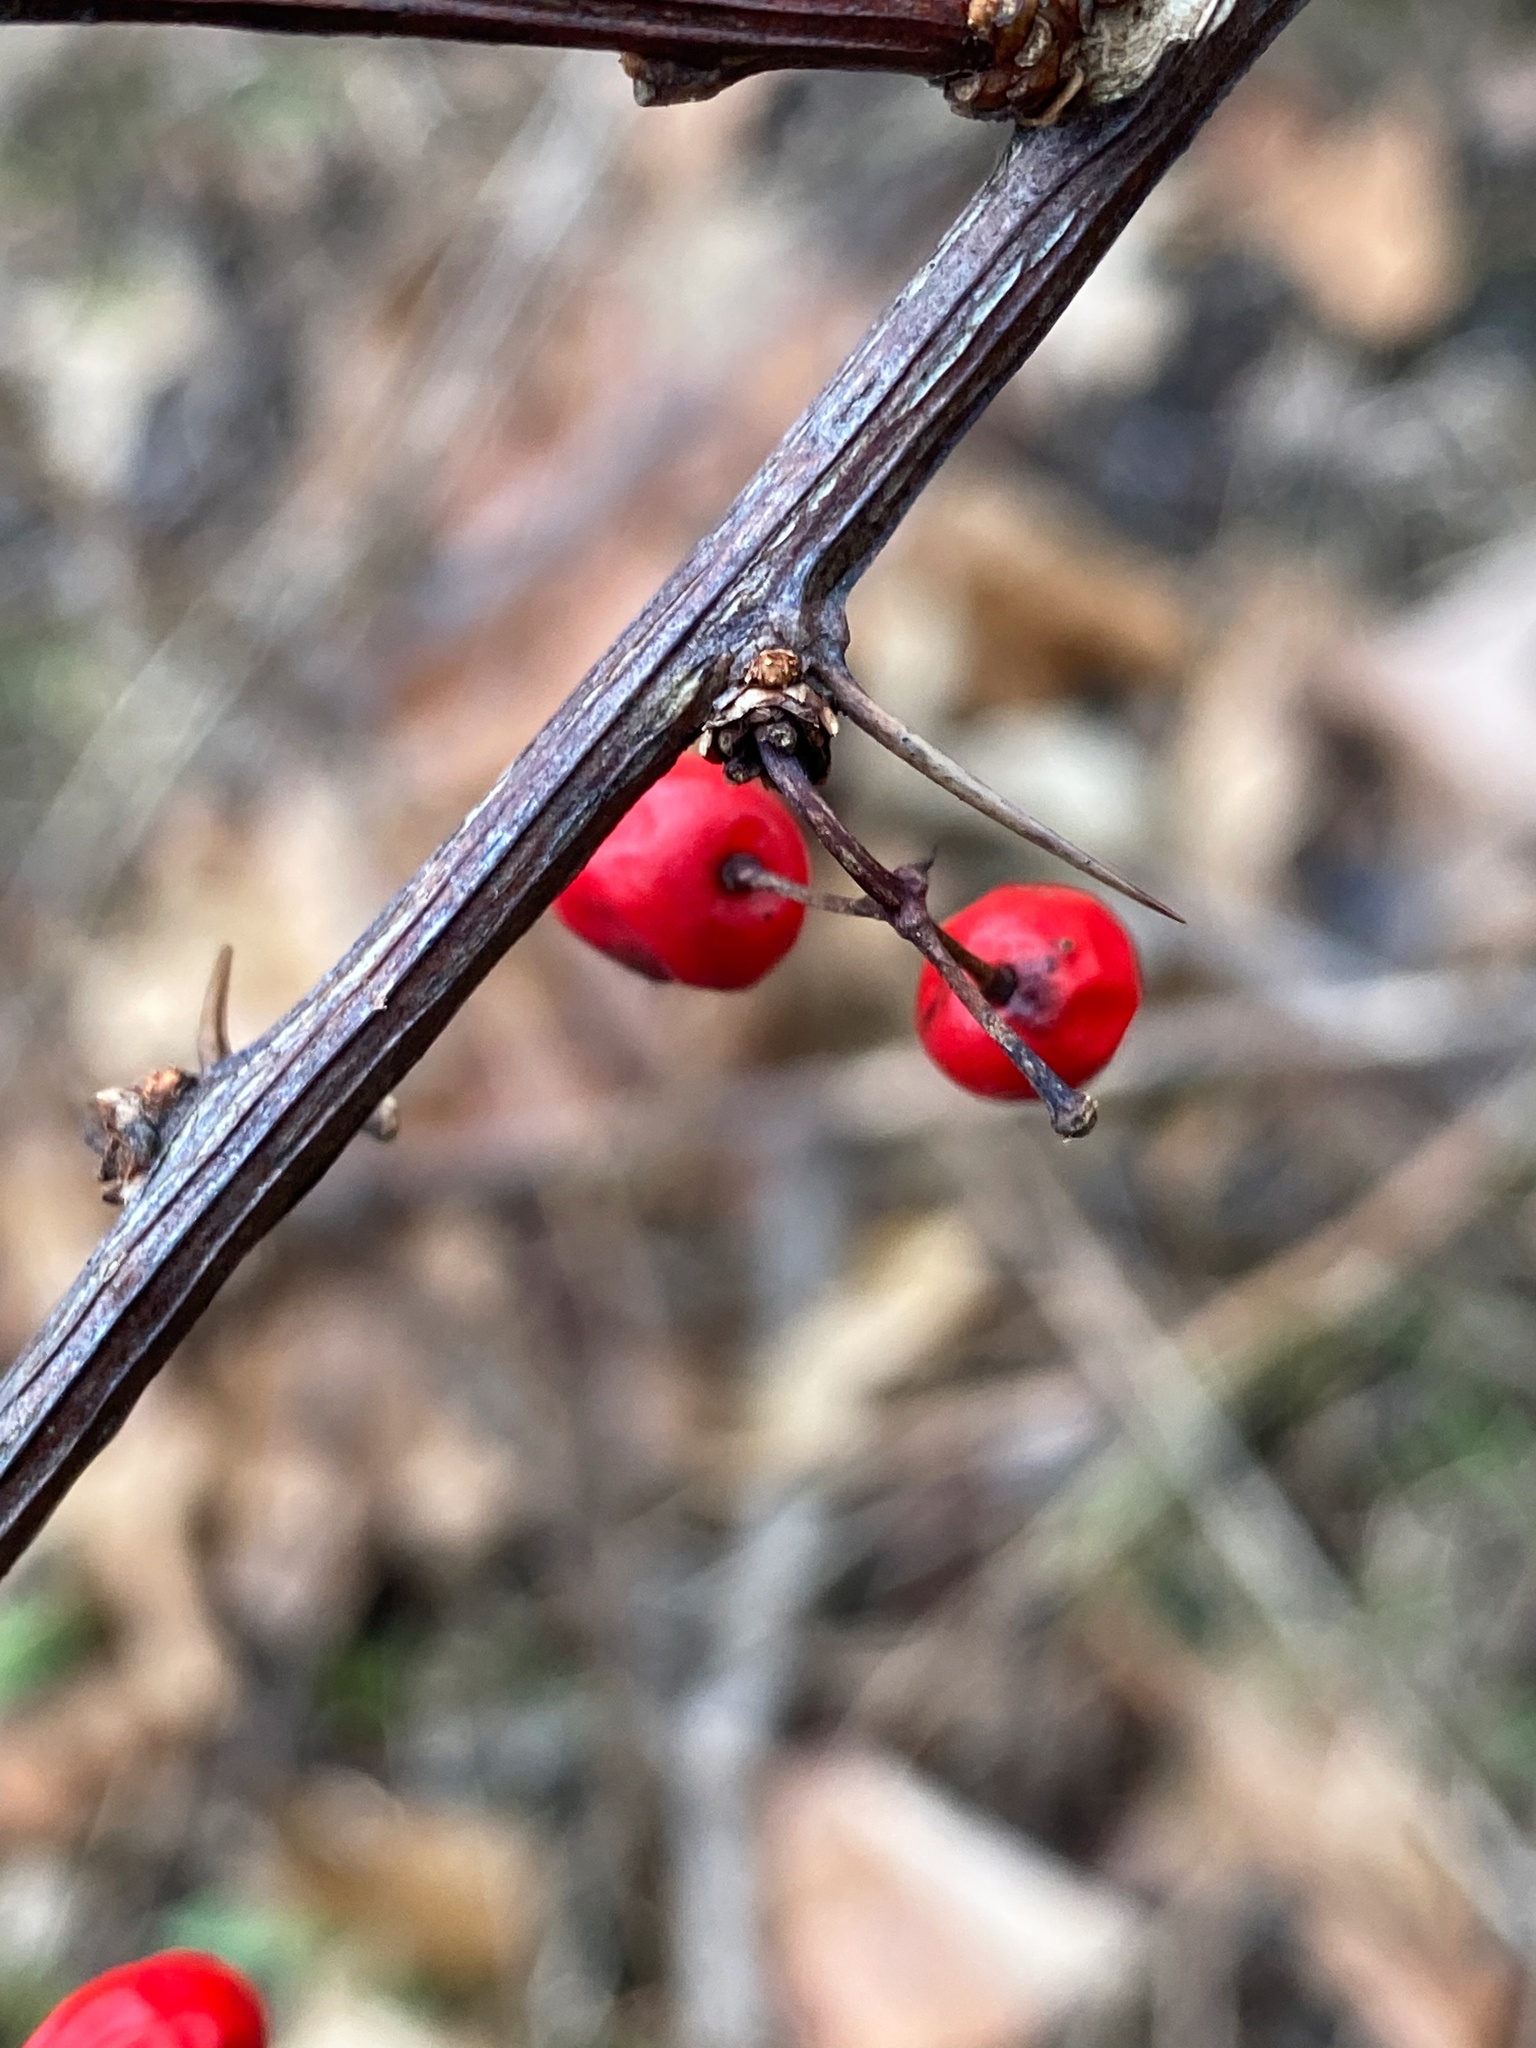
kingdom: Plantae
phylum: Tracheophyta
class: Magnoliopsida
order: Ranunculales
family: Berberidaceae
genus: Berberis
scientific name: Berberis thunbergii
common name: Japanese barberry
